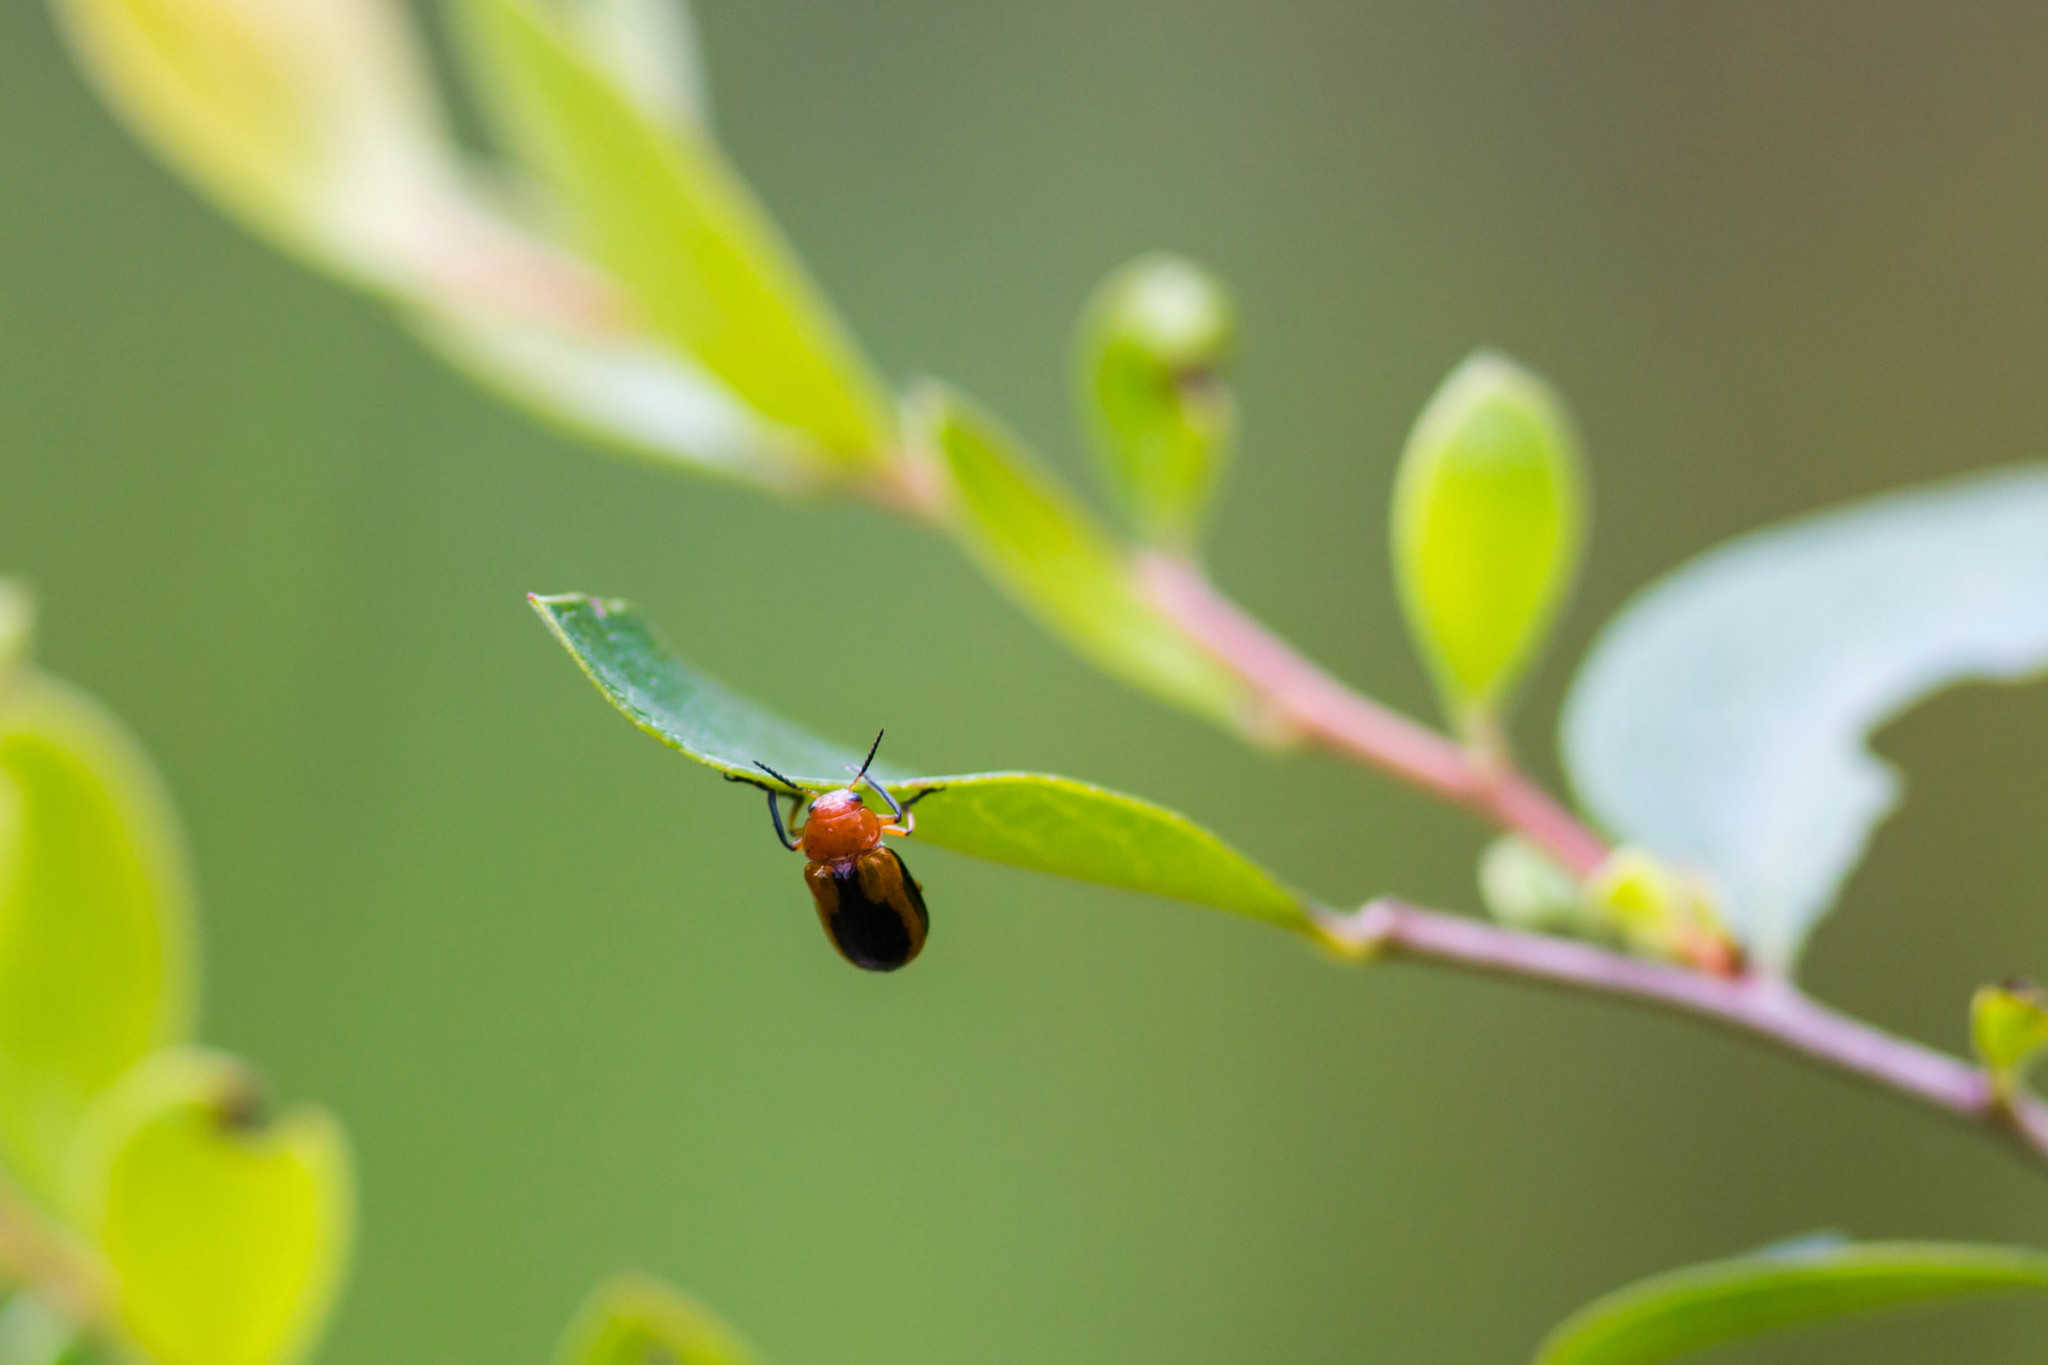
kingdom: Animalia
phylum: Arthropoda
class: Insecta
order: Coleoptera
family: Chrysomelidae
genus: Anomoea
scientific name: Anomoea laticlavia
